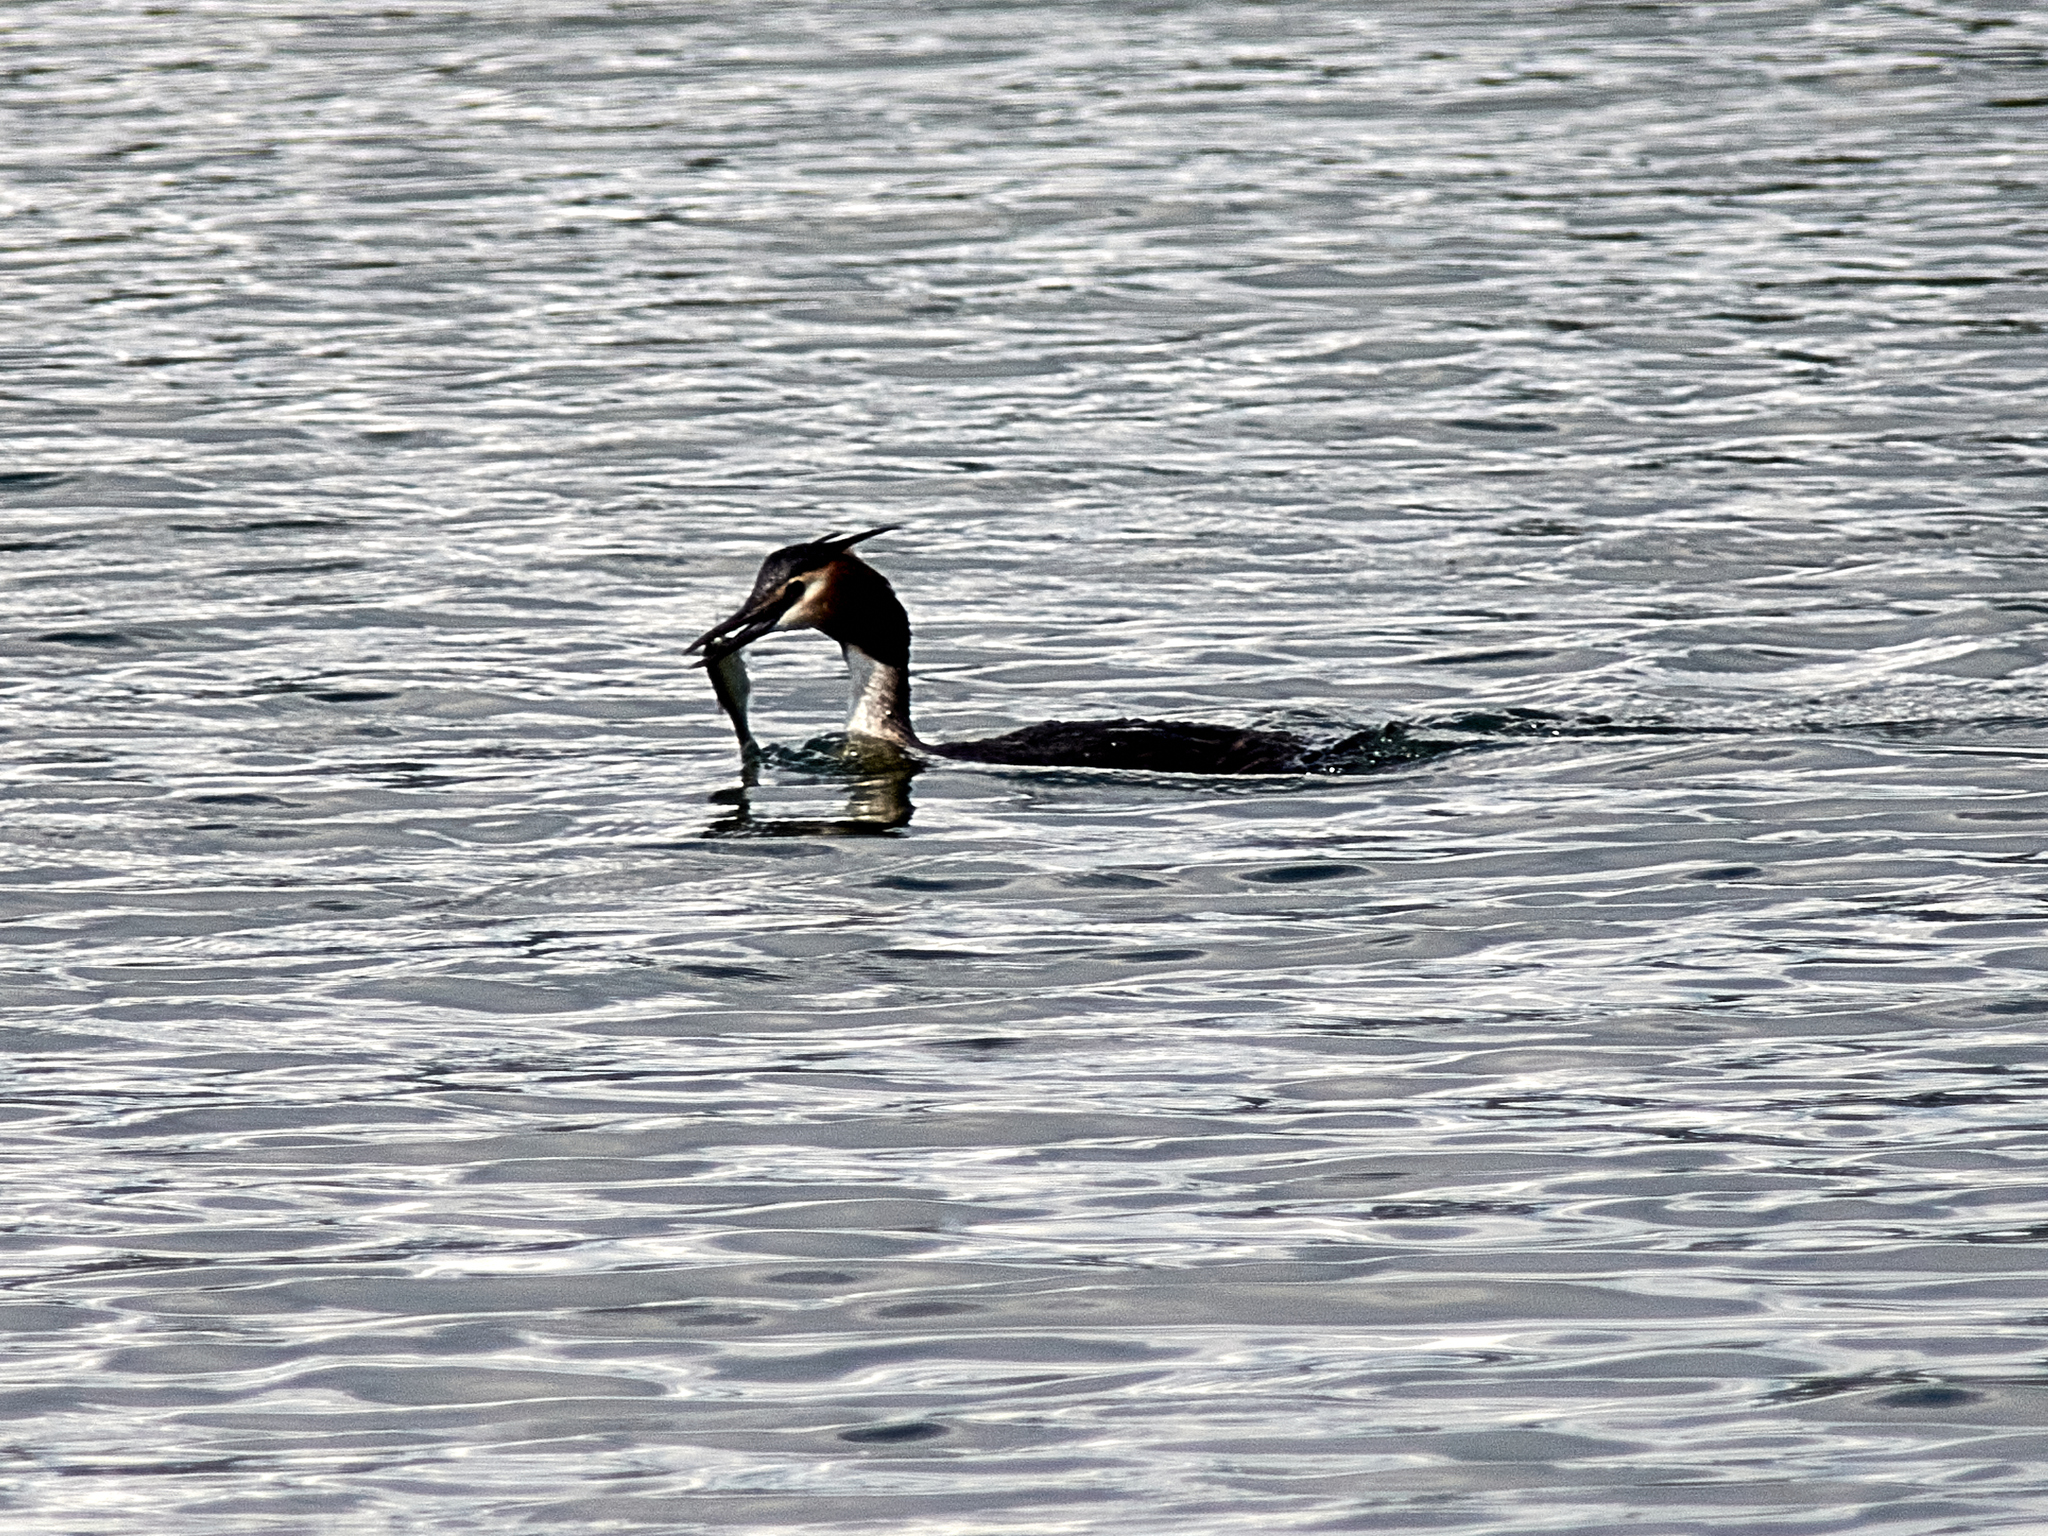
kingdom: Animalia
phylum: Chordata
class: Aves
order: Podicipediformes
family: Podicipedidae
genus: Podiceps
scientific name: Podiceps cristatus
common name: Great crested grebe
